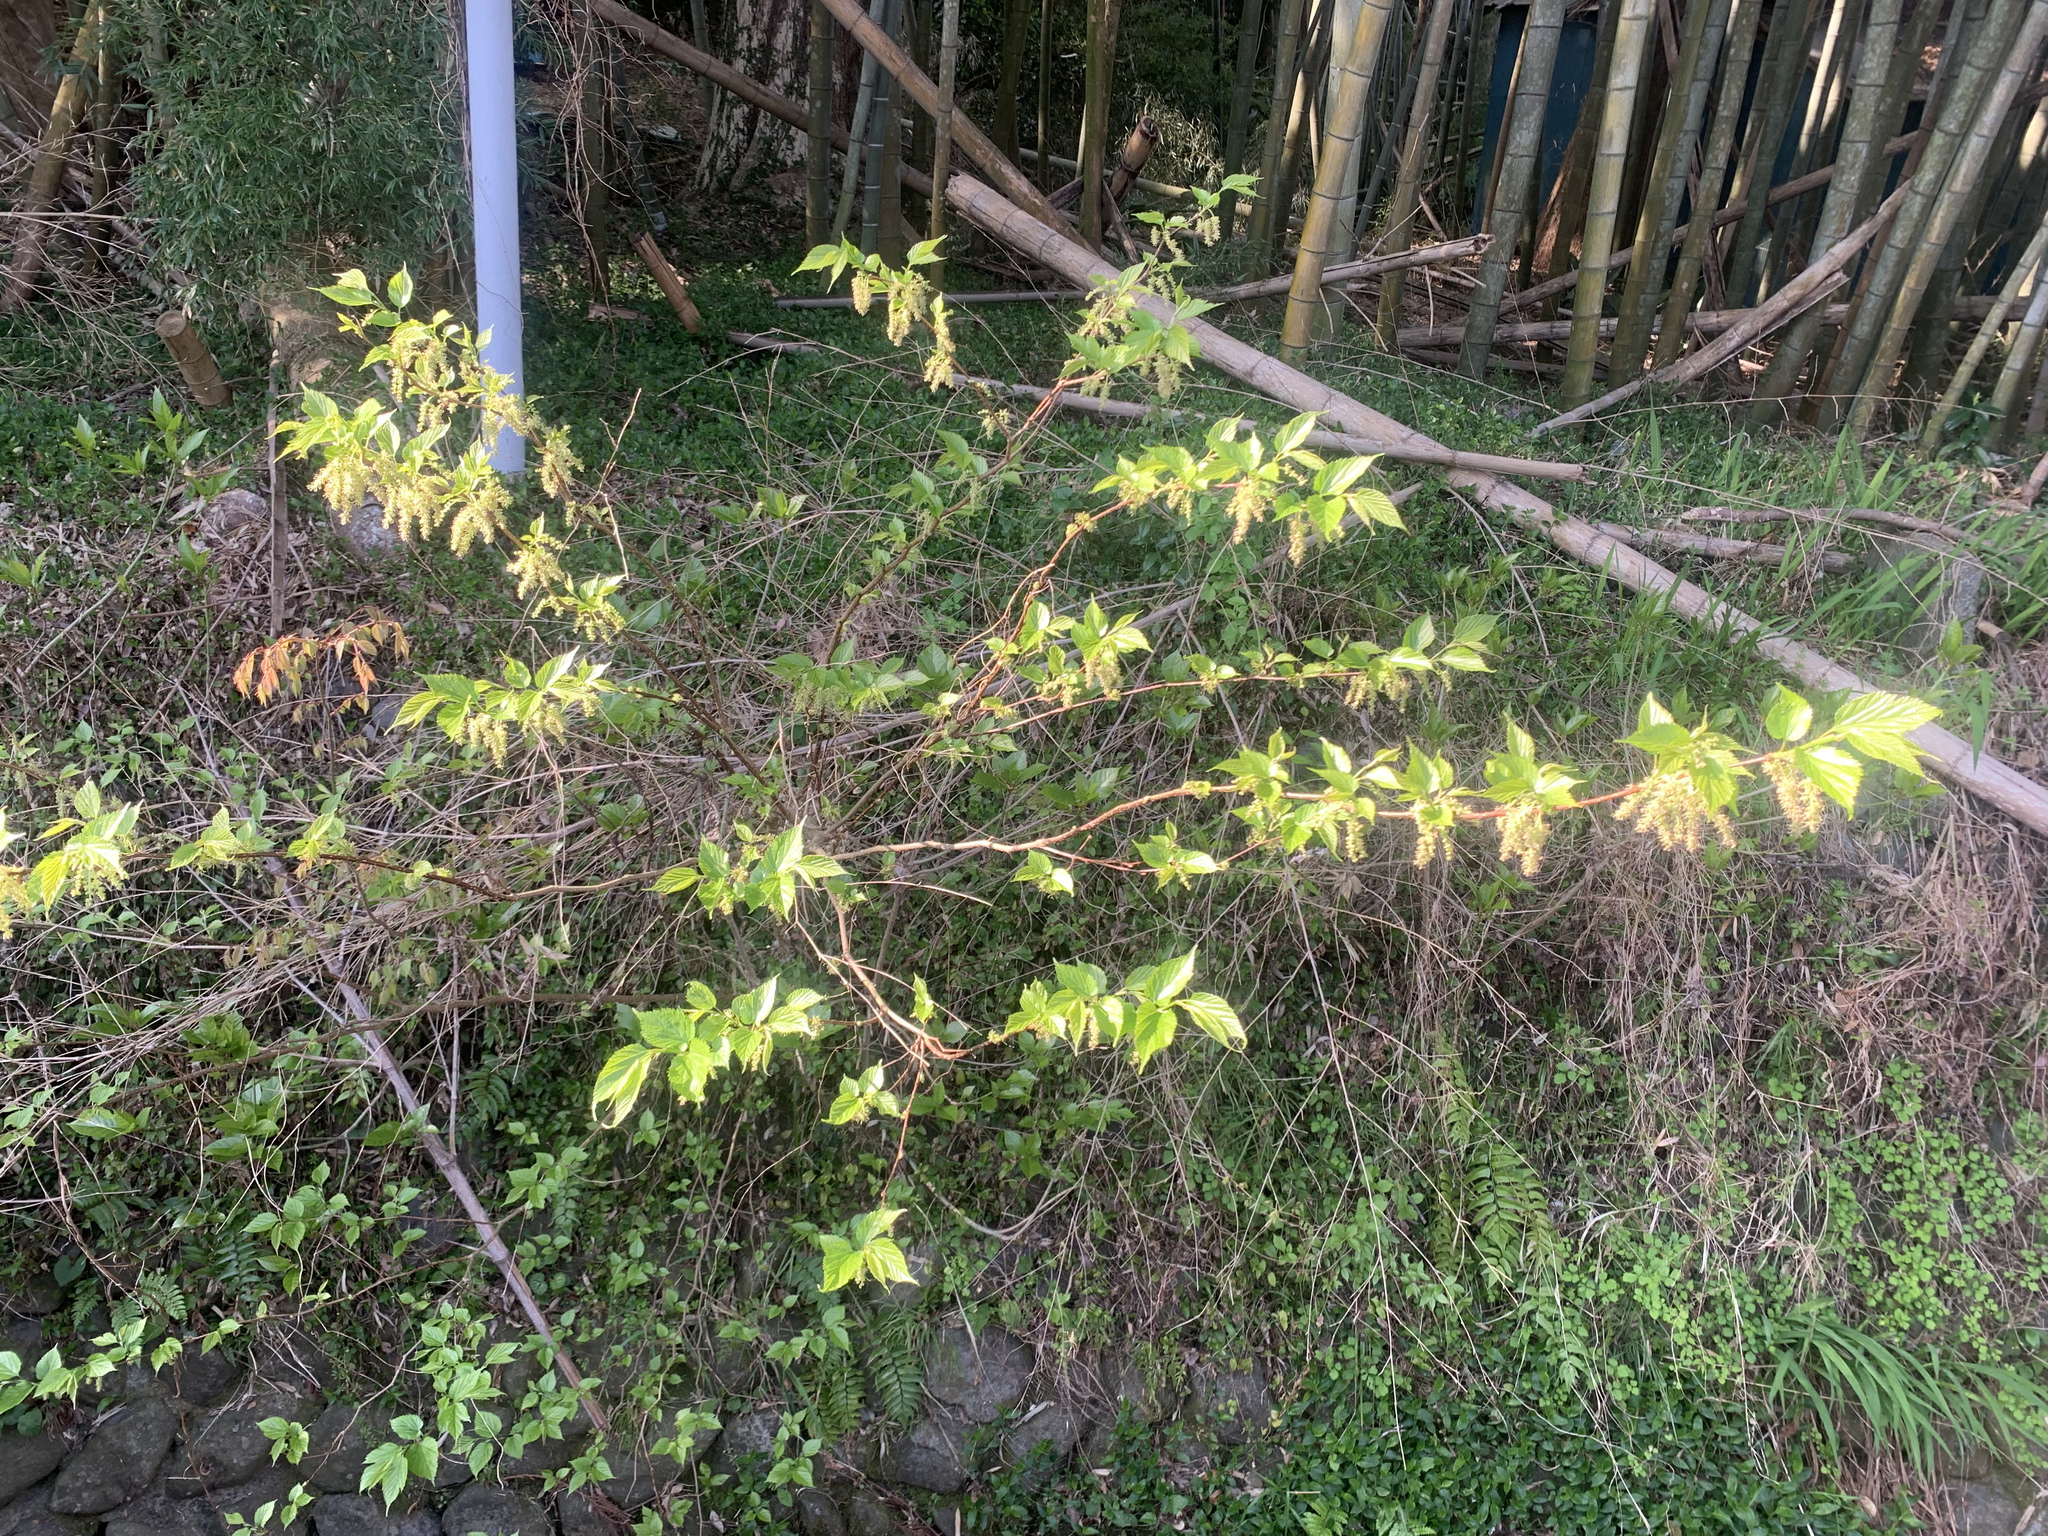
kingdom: Plantae
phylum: Tracheophyta
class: Magnoliopsida
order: Rosales
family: Moraceae
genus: Morus
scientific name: Morus indica
